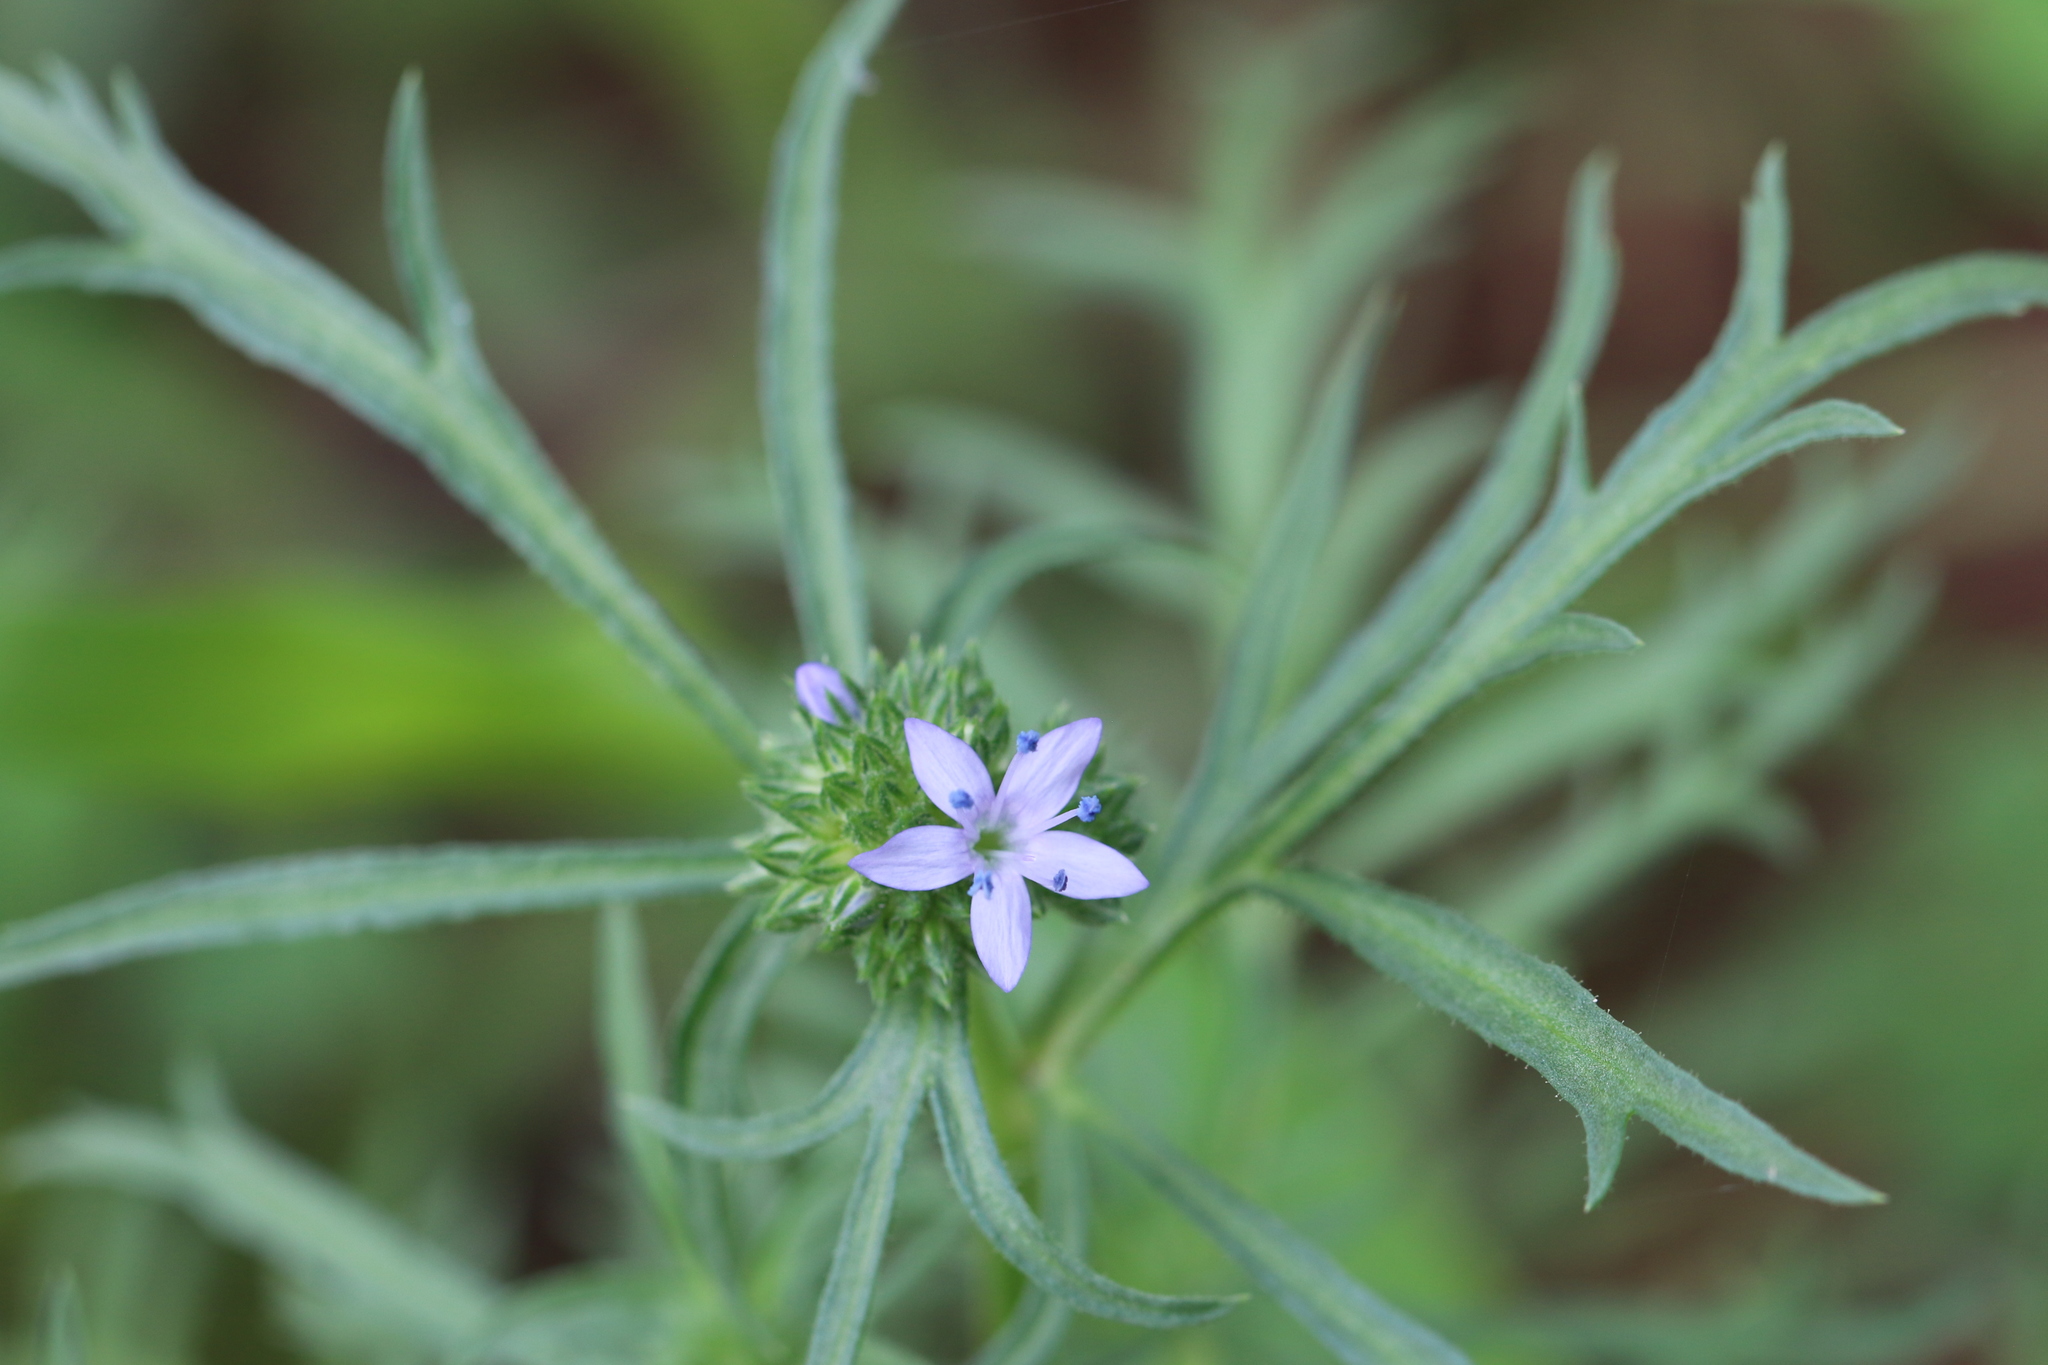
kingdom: Plantae
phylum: Tracheophyta
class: Magnoliopsida
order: Ericales
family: Polemoniaceae
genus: Gilia
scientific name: Gilia capitata
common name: Bluehead gilia
